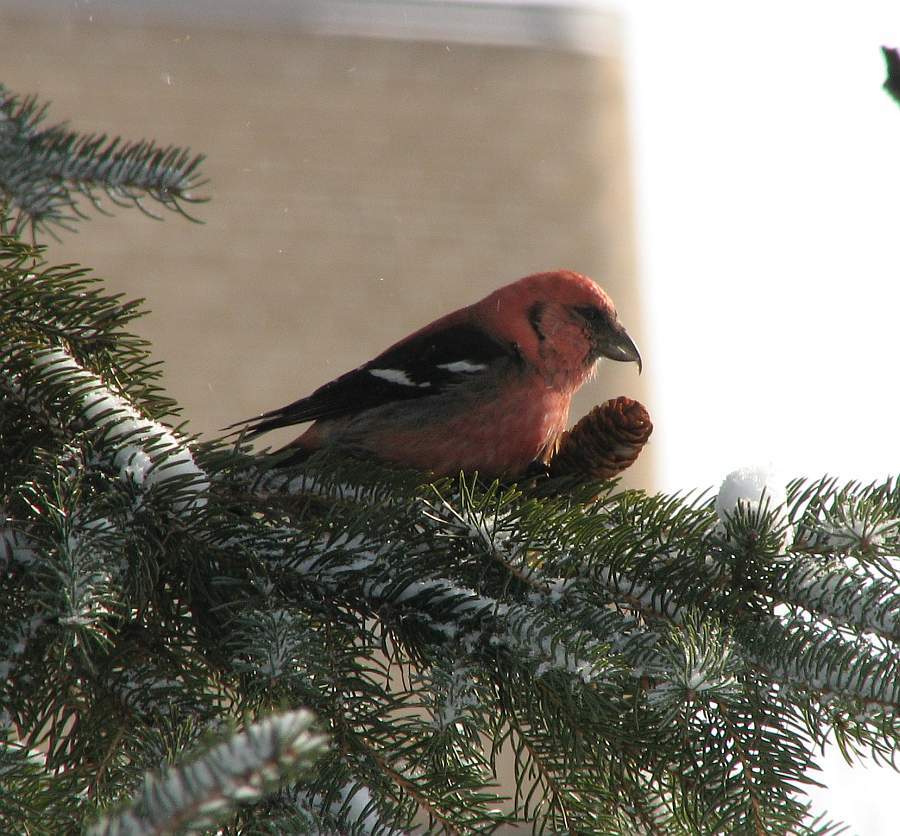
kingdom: Animalia
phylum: Chordata
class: Aves
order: Passeriformes
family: Fringillidae
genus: Loxia
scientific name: Loxia leucoptera
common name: Two-barred crossbill
